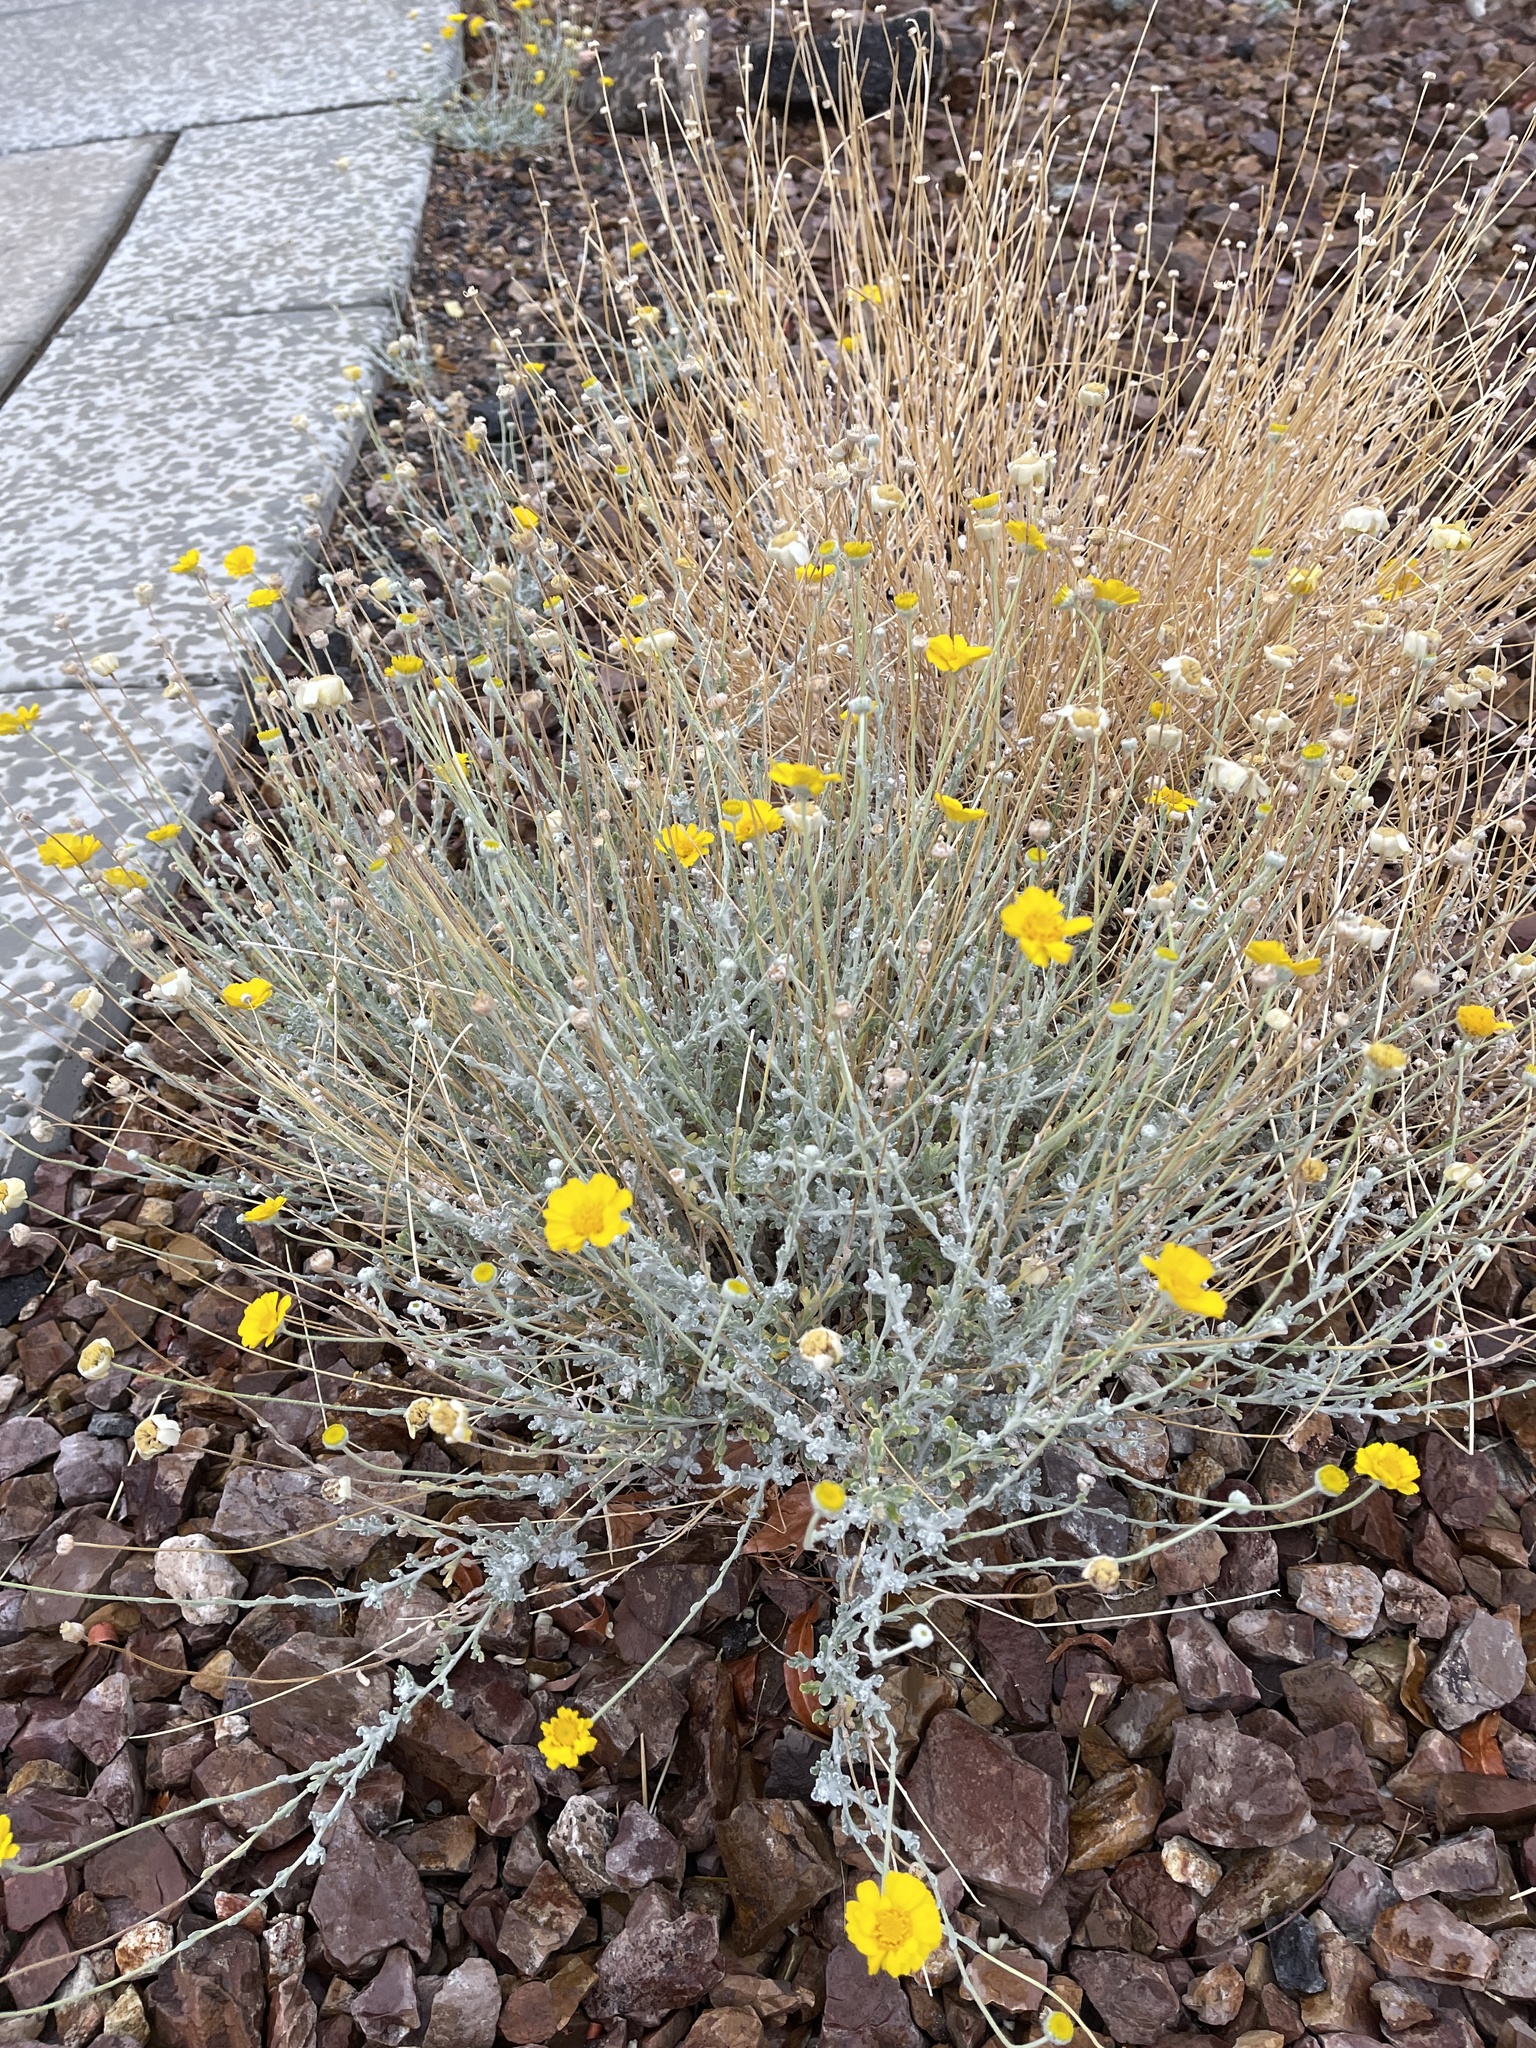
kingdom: Plantae
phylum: Tracheophyta
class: Magnoliopsida
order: Asterales
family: Asteraceae
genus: Baileya
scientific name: Baileya multiradiata
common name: Desert-marigold
